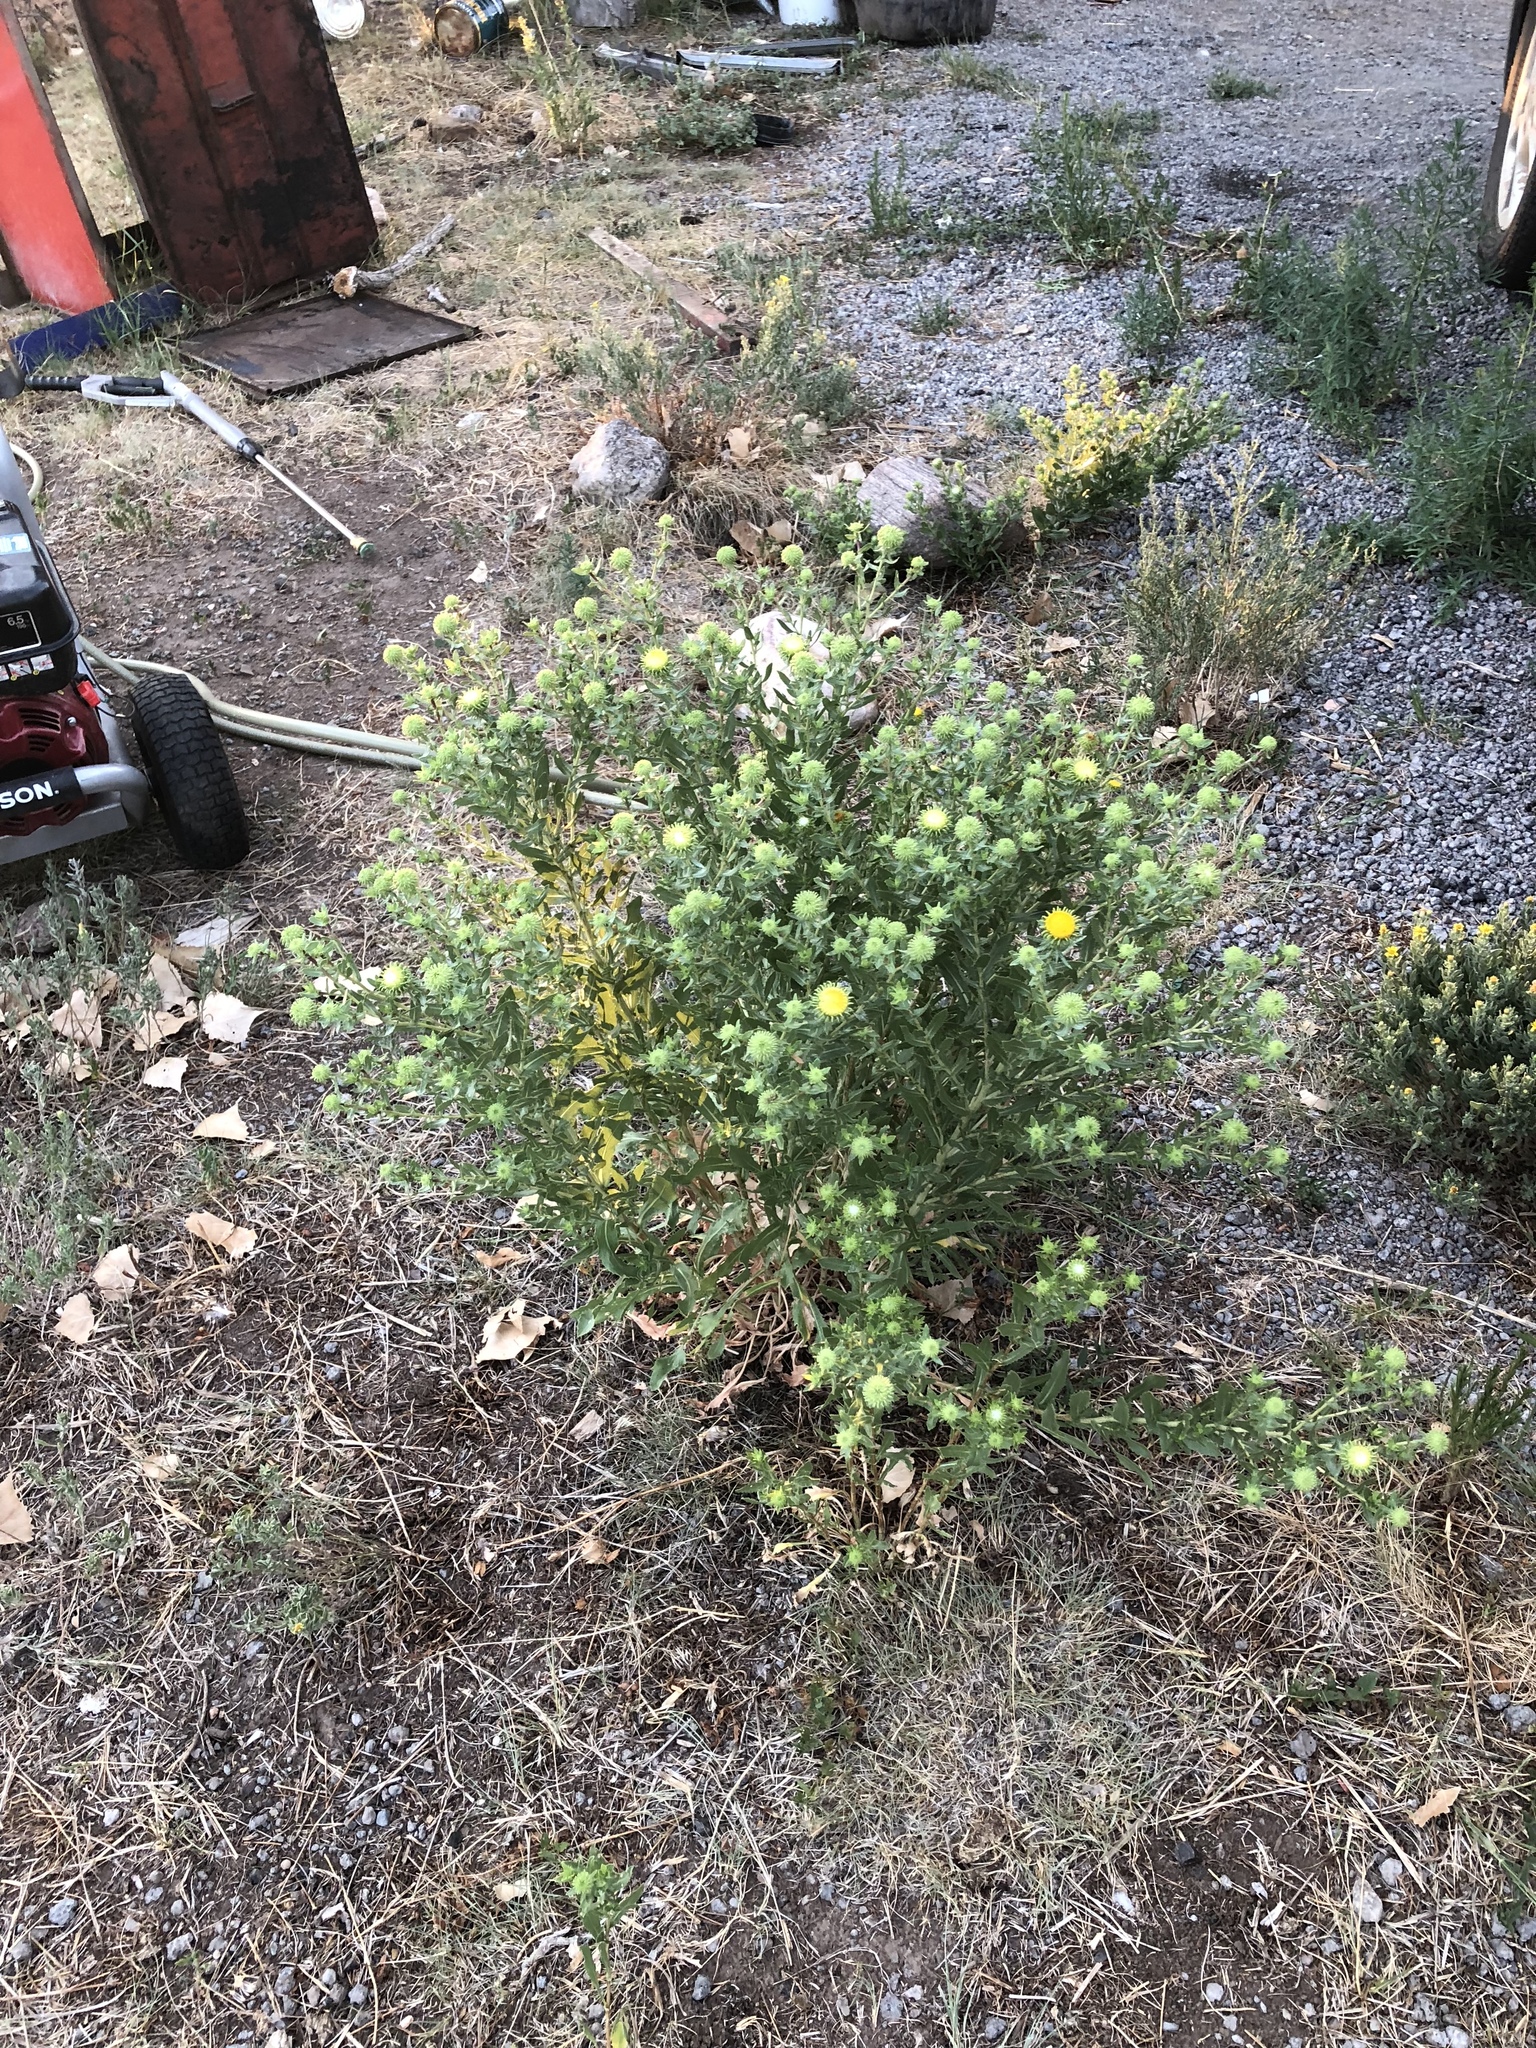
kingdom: Plantae
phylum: Tracheophyta
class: Magnoliopsida
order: Asterales
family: Asteraceae
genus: Grindelia
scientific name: Grindelia squarrosa
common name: Curly-cup gumweed
